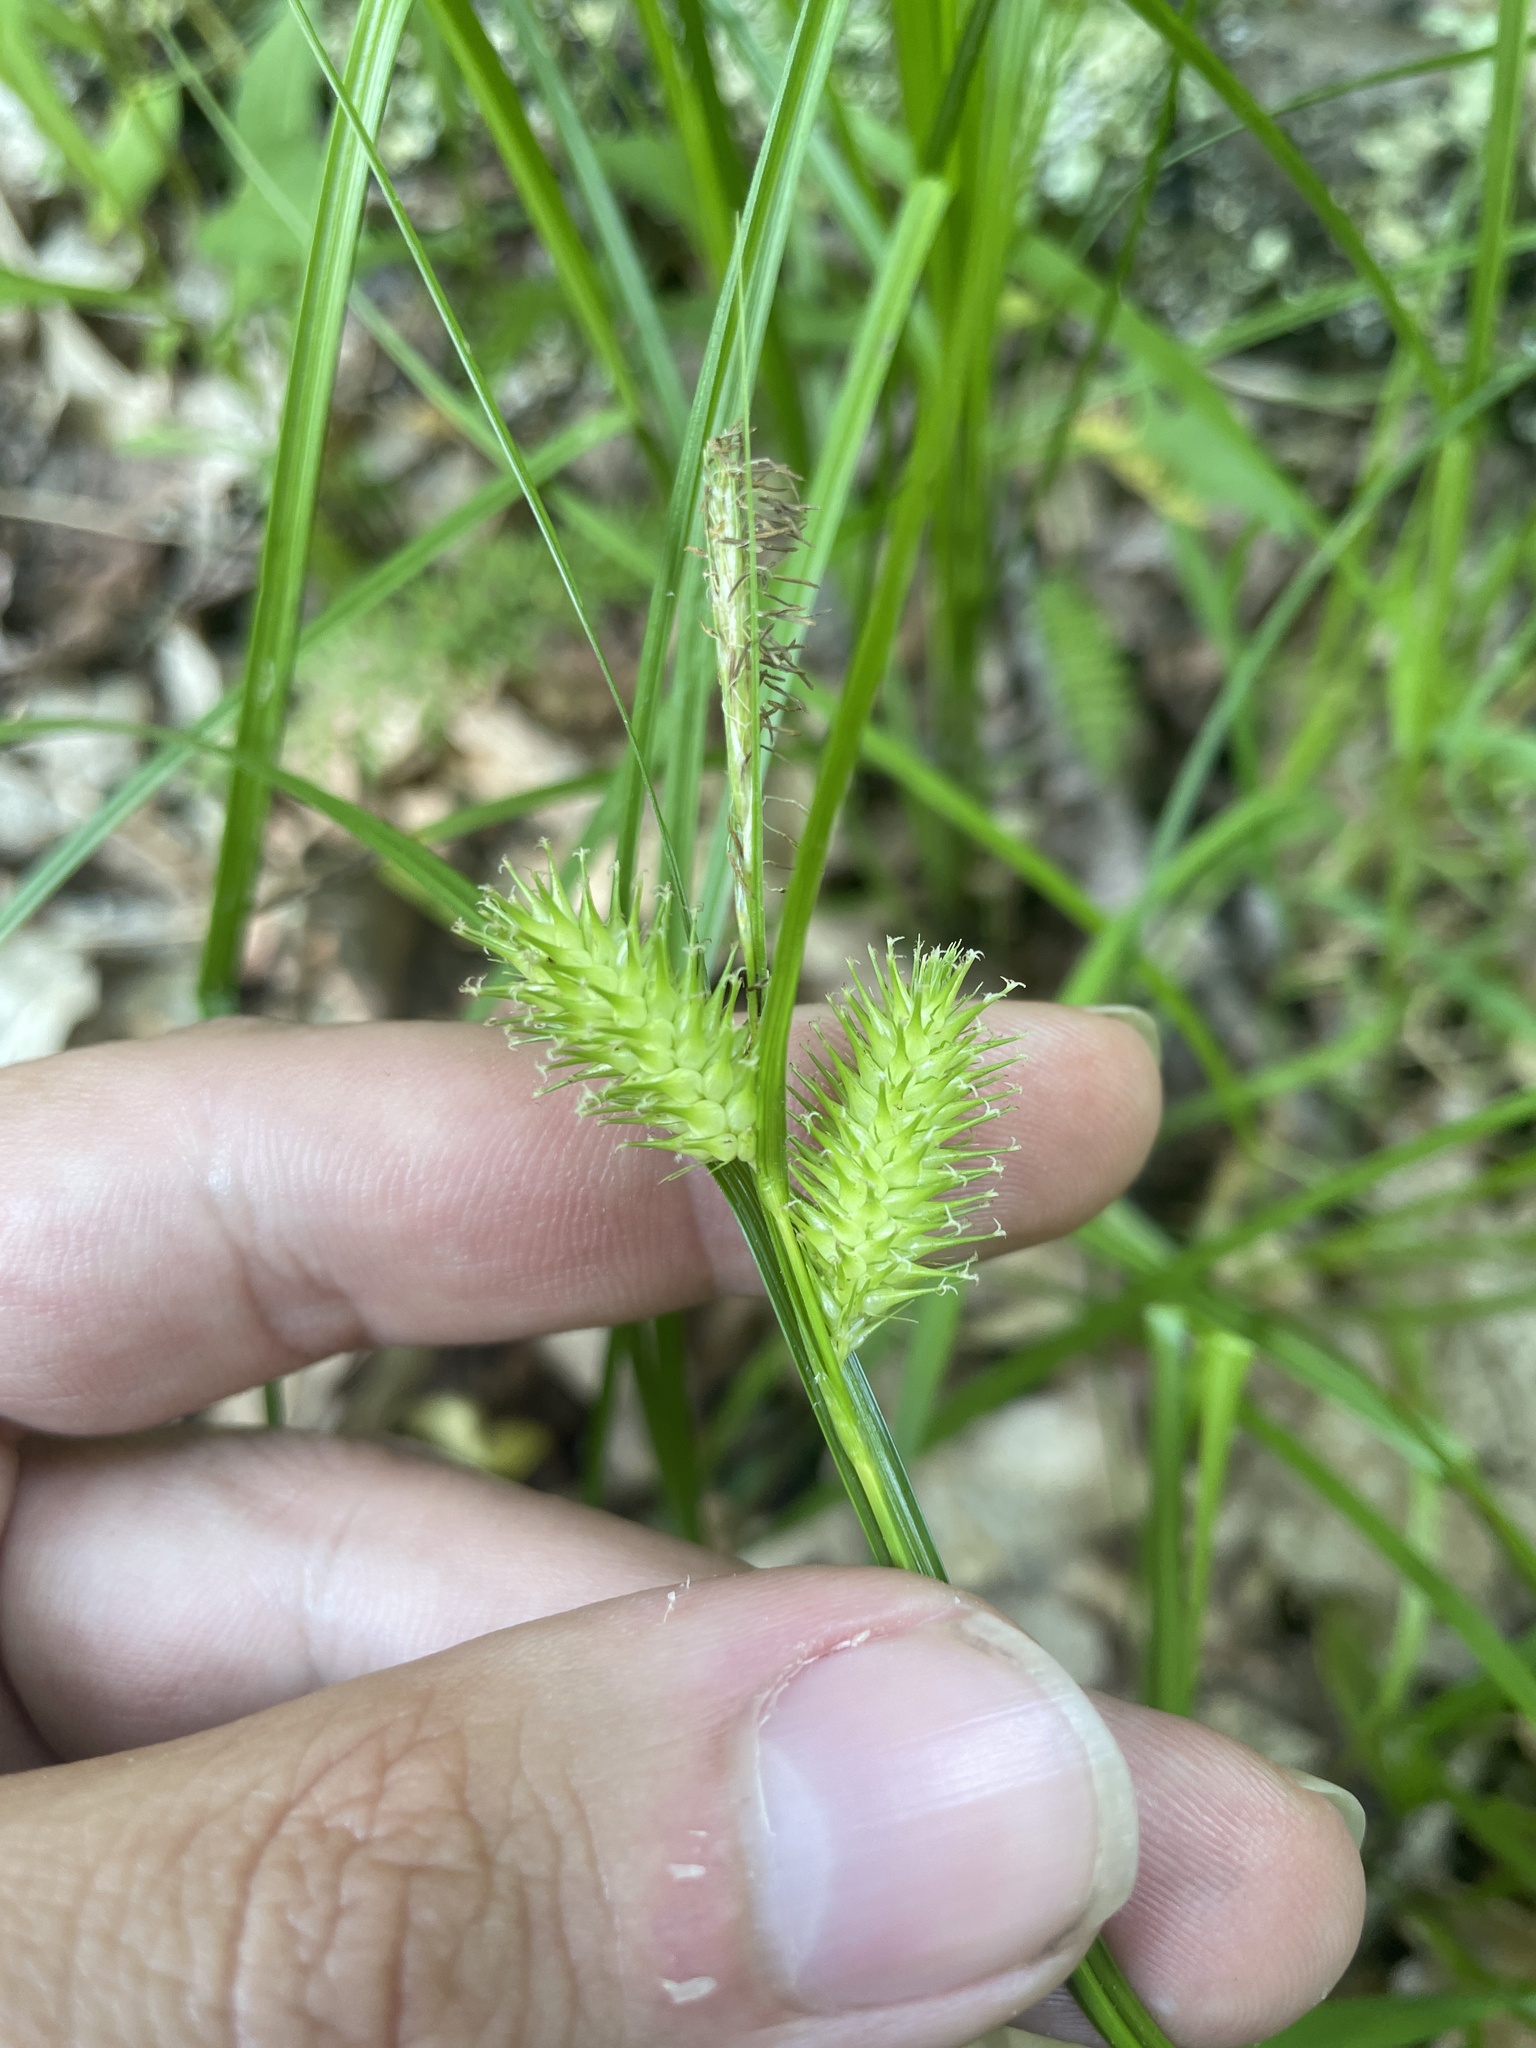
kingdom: Plantae
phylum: Tracheophyta
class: Liliopsida
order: Poales
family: Cyperaceae
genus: Carex
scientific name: Carex lurida
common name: Sallow sedge
